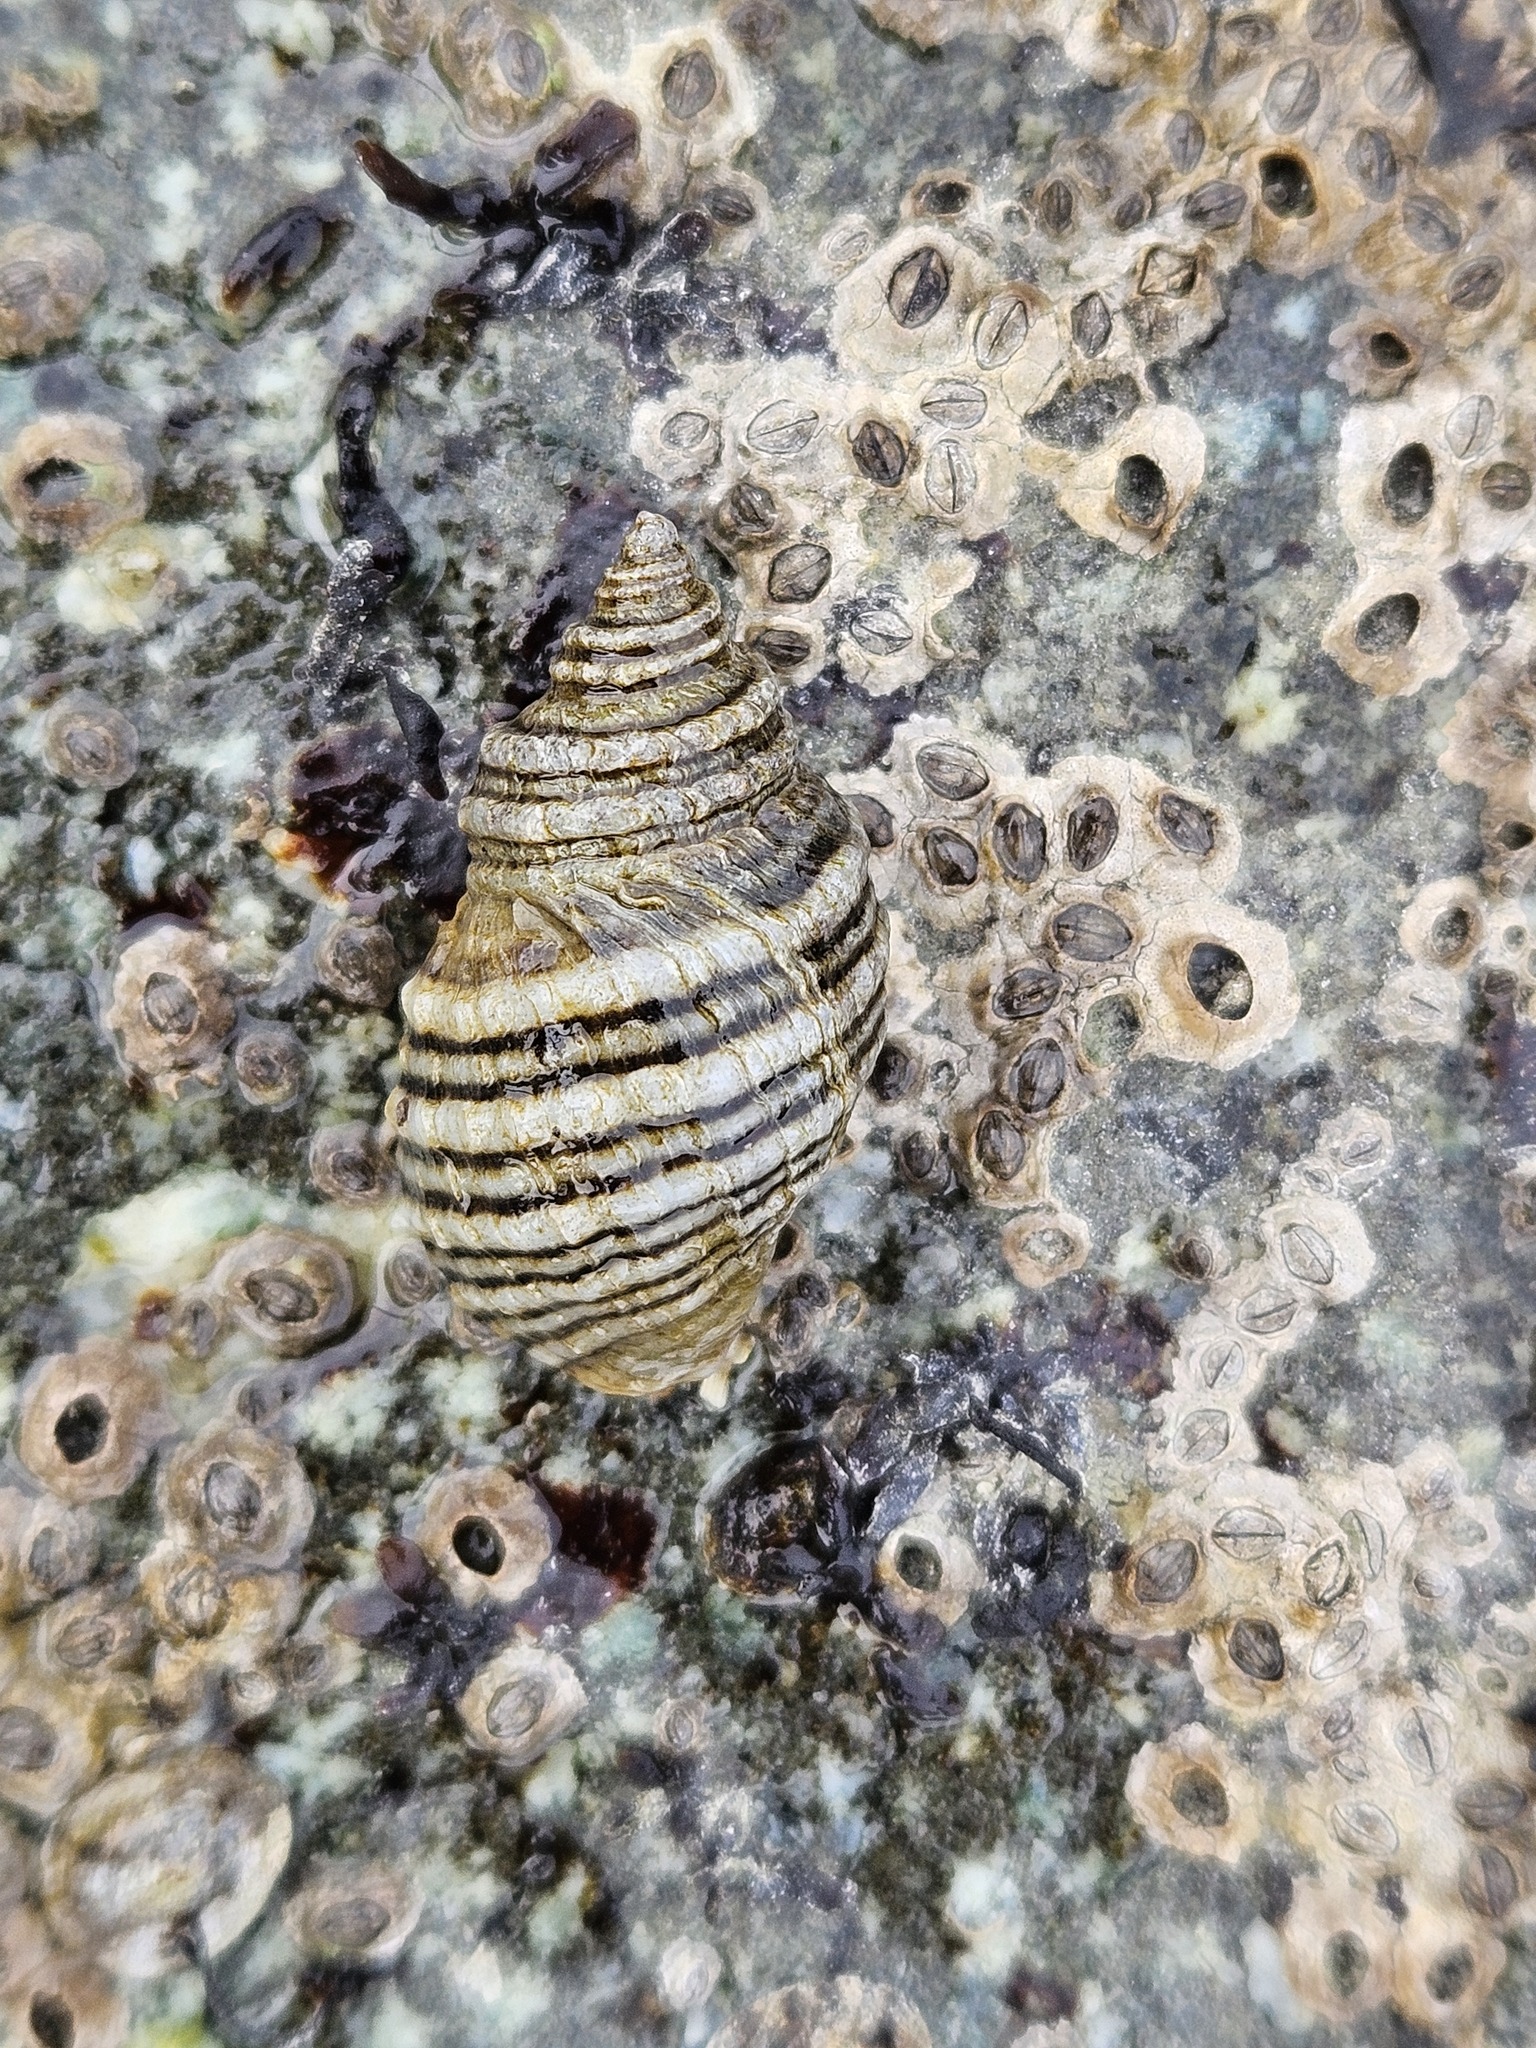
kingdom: Animalia
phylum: Mollusca
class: Gastropoda
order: Neogastropoda
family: Muricidae
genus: Nucella
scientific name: Nucella ostrina
